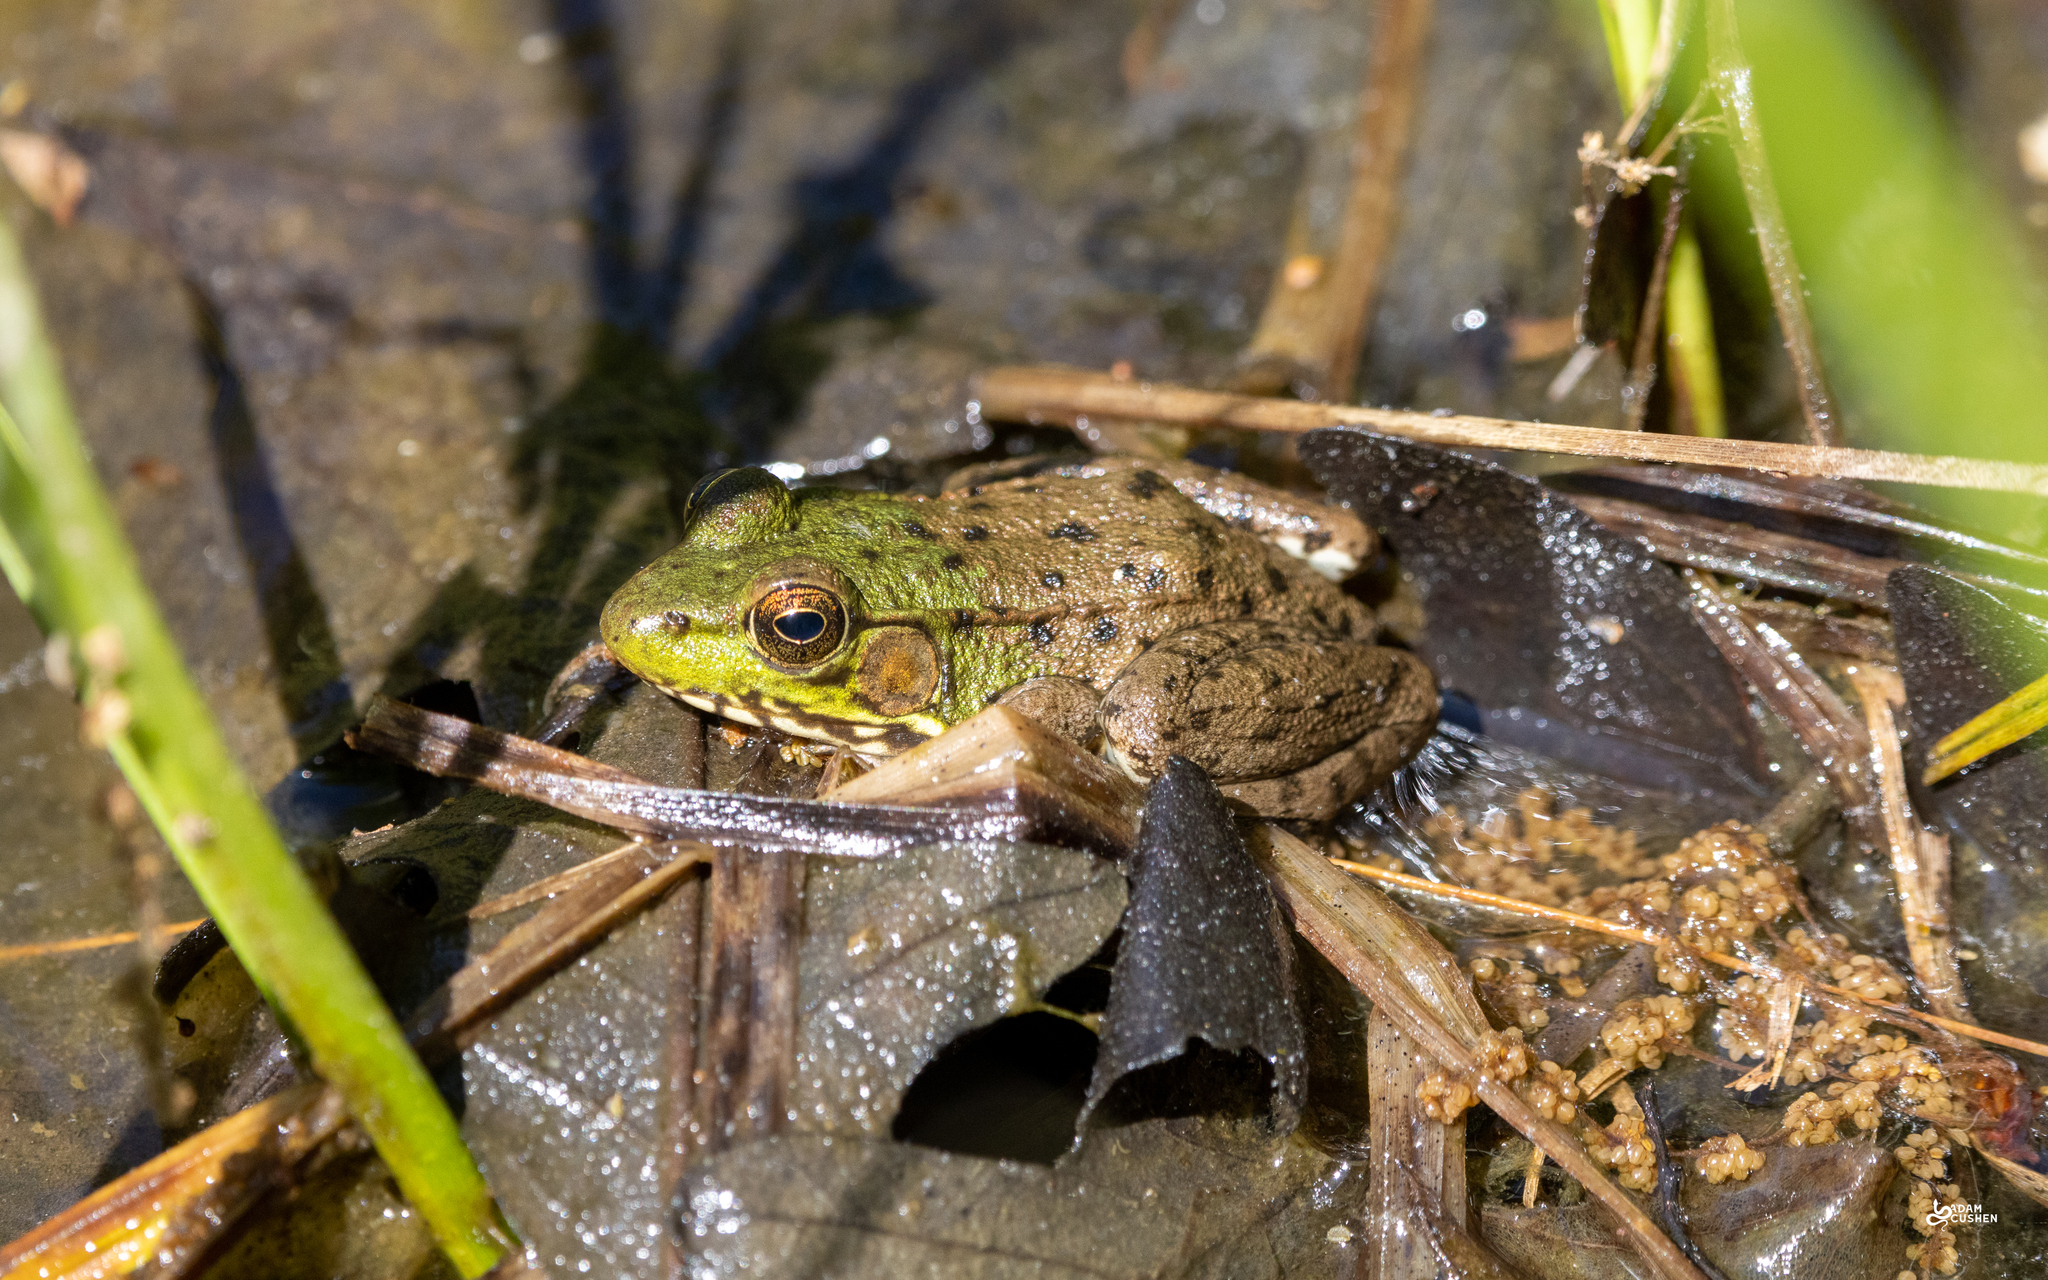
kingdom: Animalia
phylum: Chordata
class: Amphibia
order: Anura
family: Ranidae
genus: Lithobates
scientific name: Lithobates clamitans
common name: Green frog
